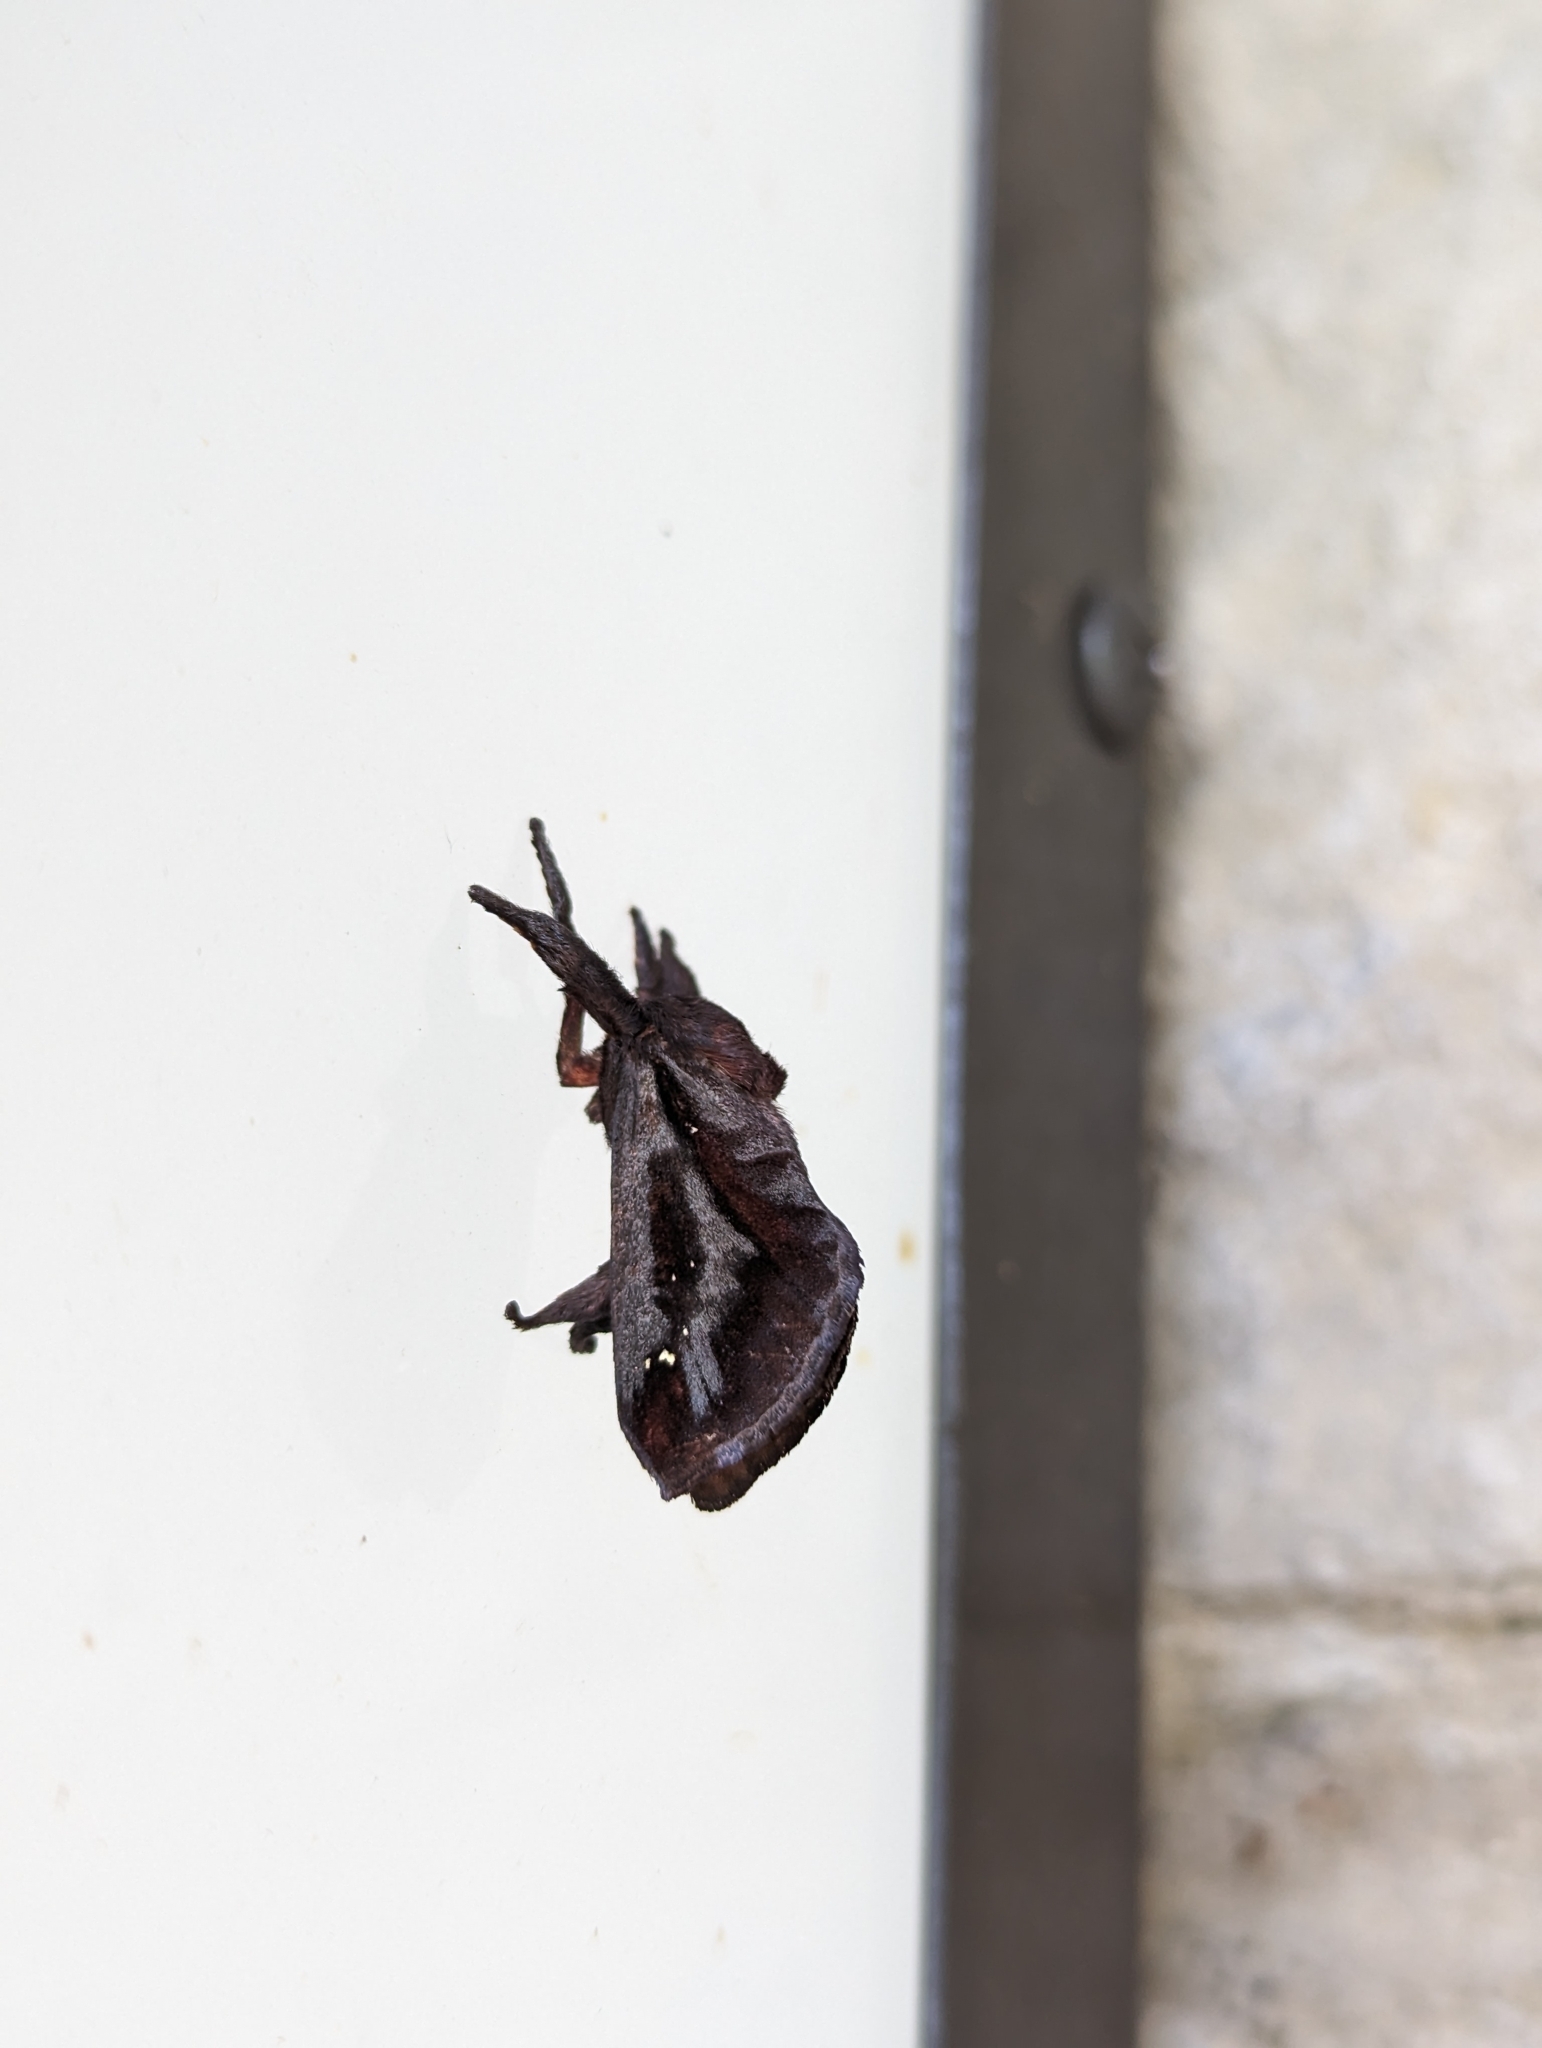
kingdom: Animalia
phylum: Arthropoda
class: Insecta
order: Lepidoptera
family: Limacodidae
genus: Acharia
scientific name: Acharia stimulea
